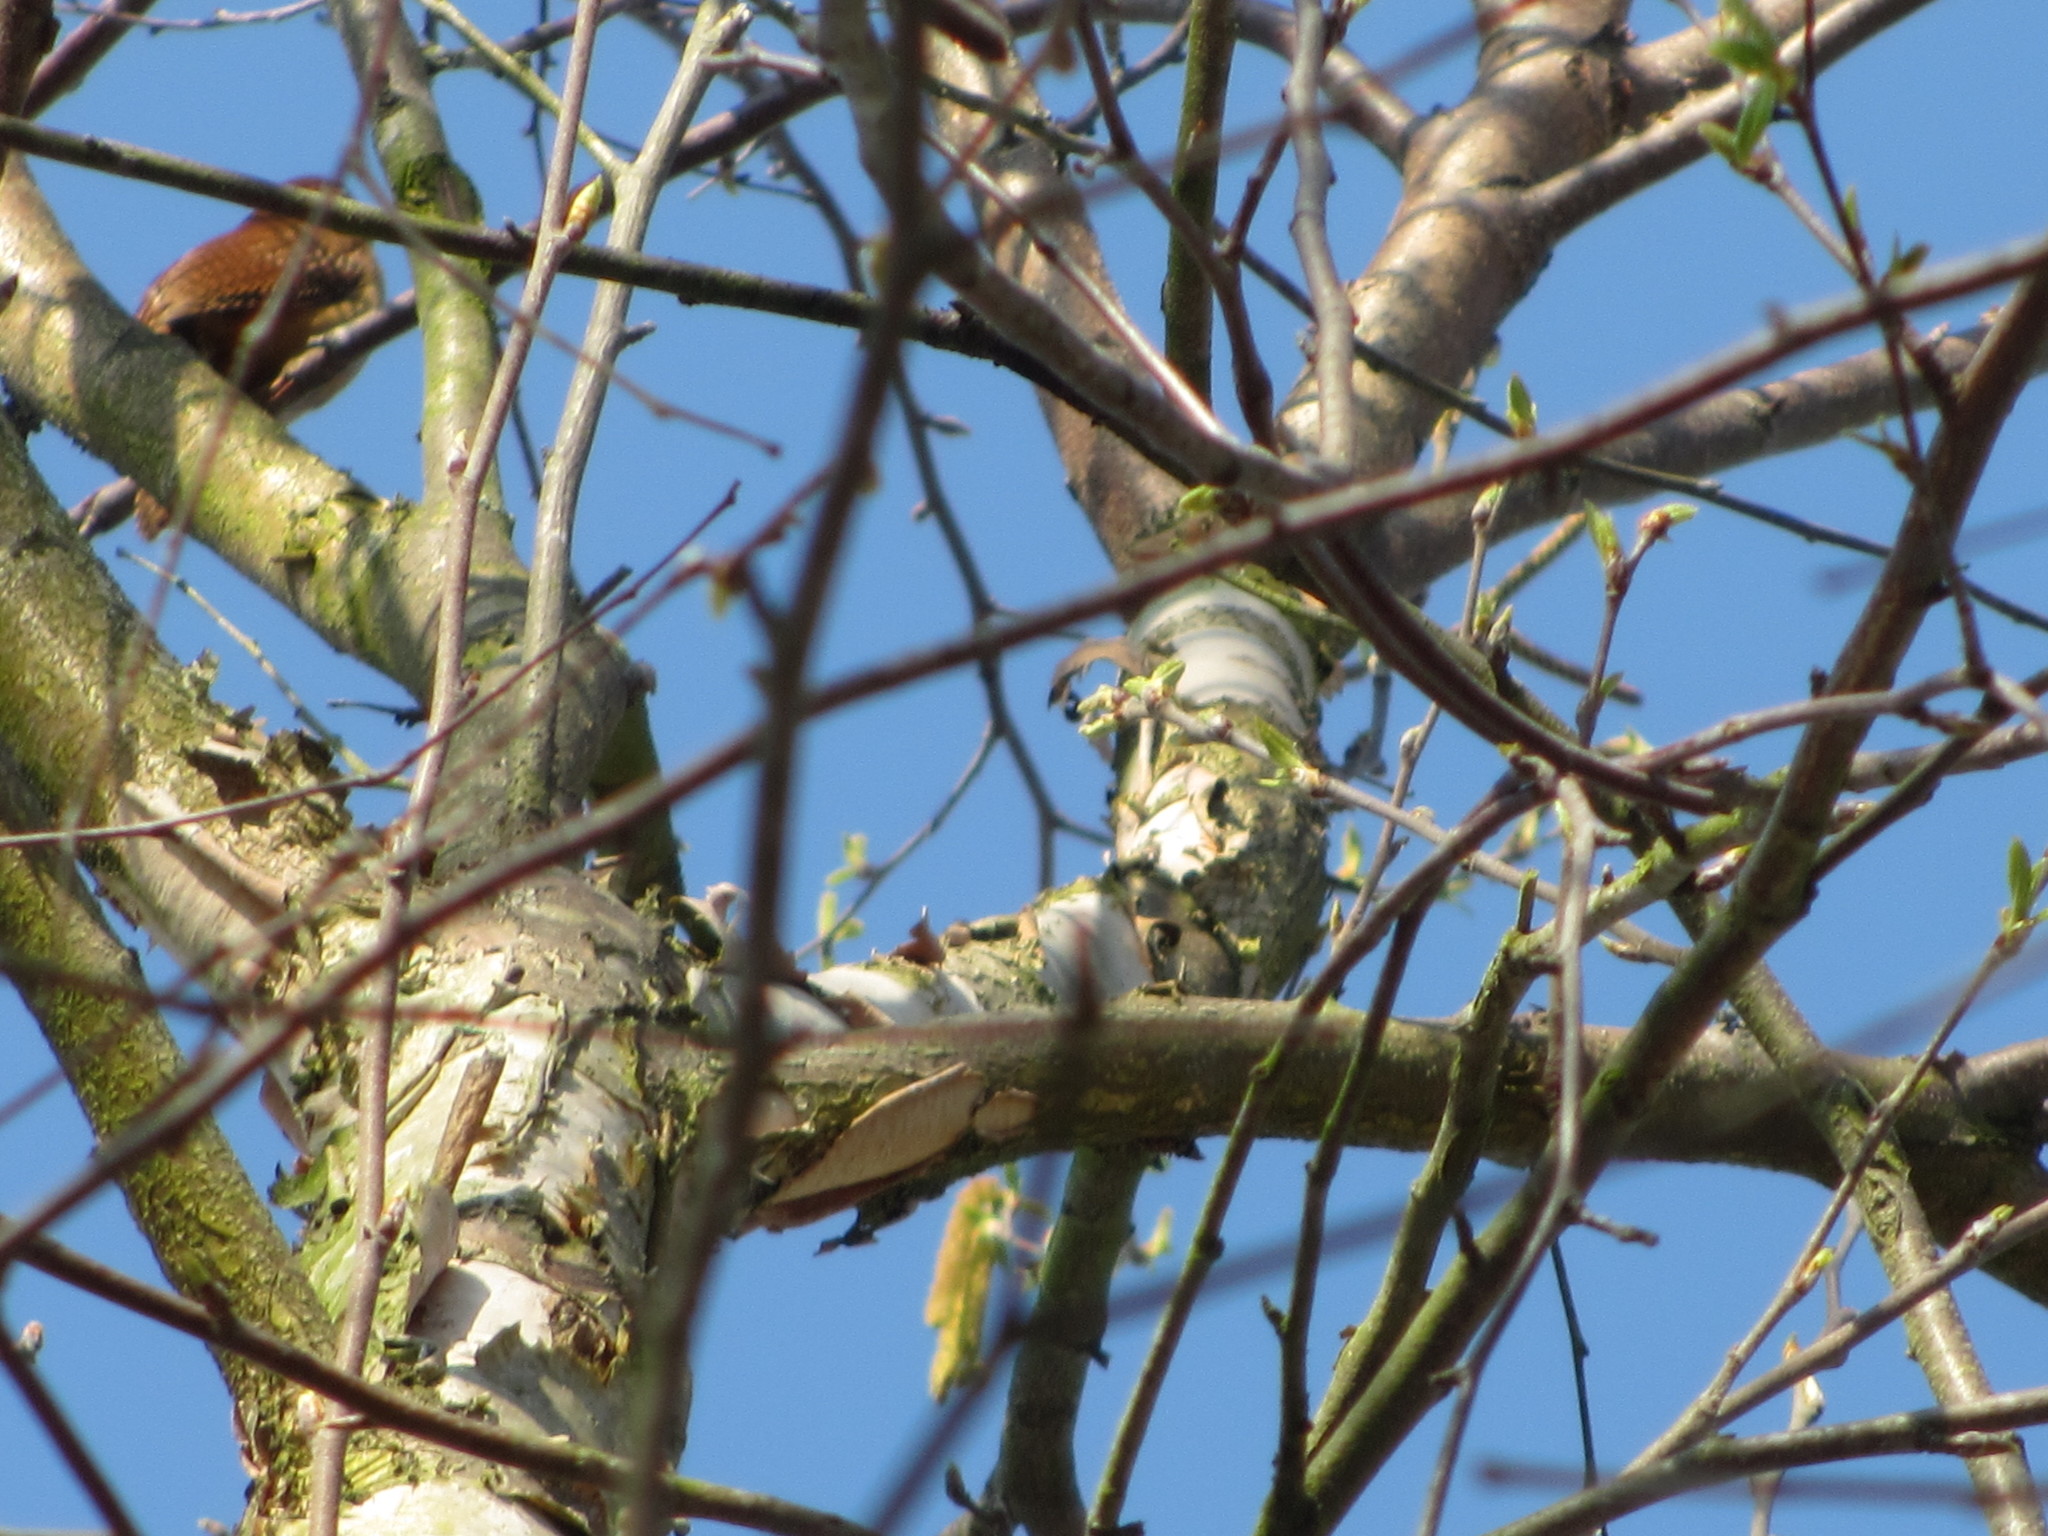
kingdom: Animalia
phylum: Chordata
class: Aves
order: Passeriformes
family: Troglodytidae
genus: Thryothorus
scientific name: Thryothorus ludovicianus
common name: Carolina wren
